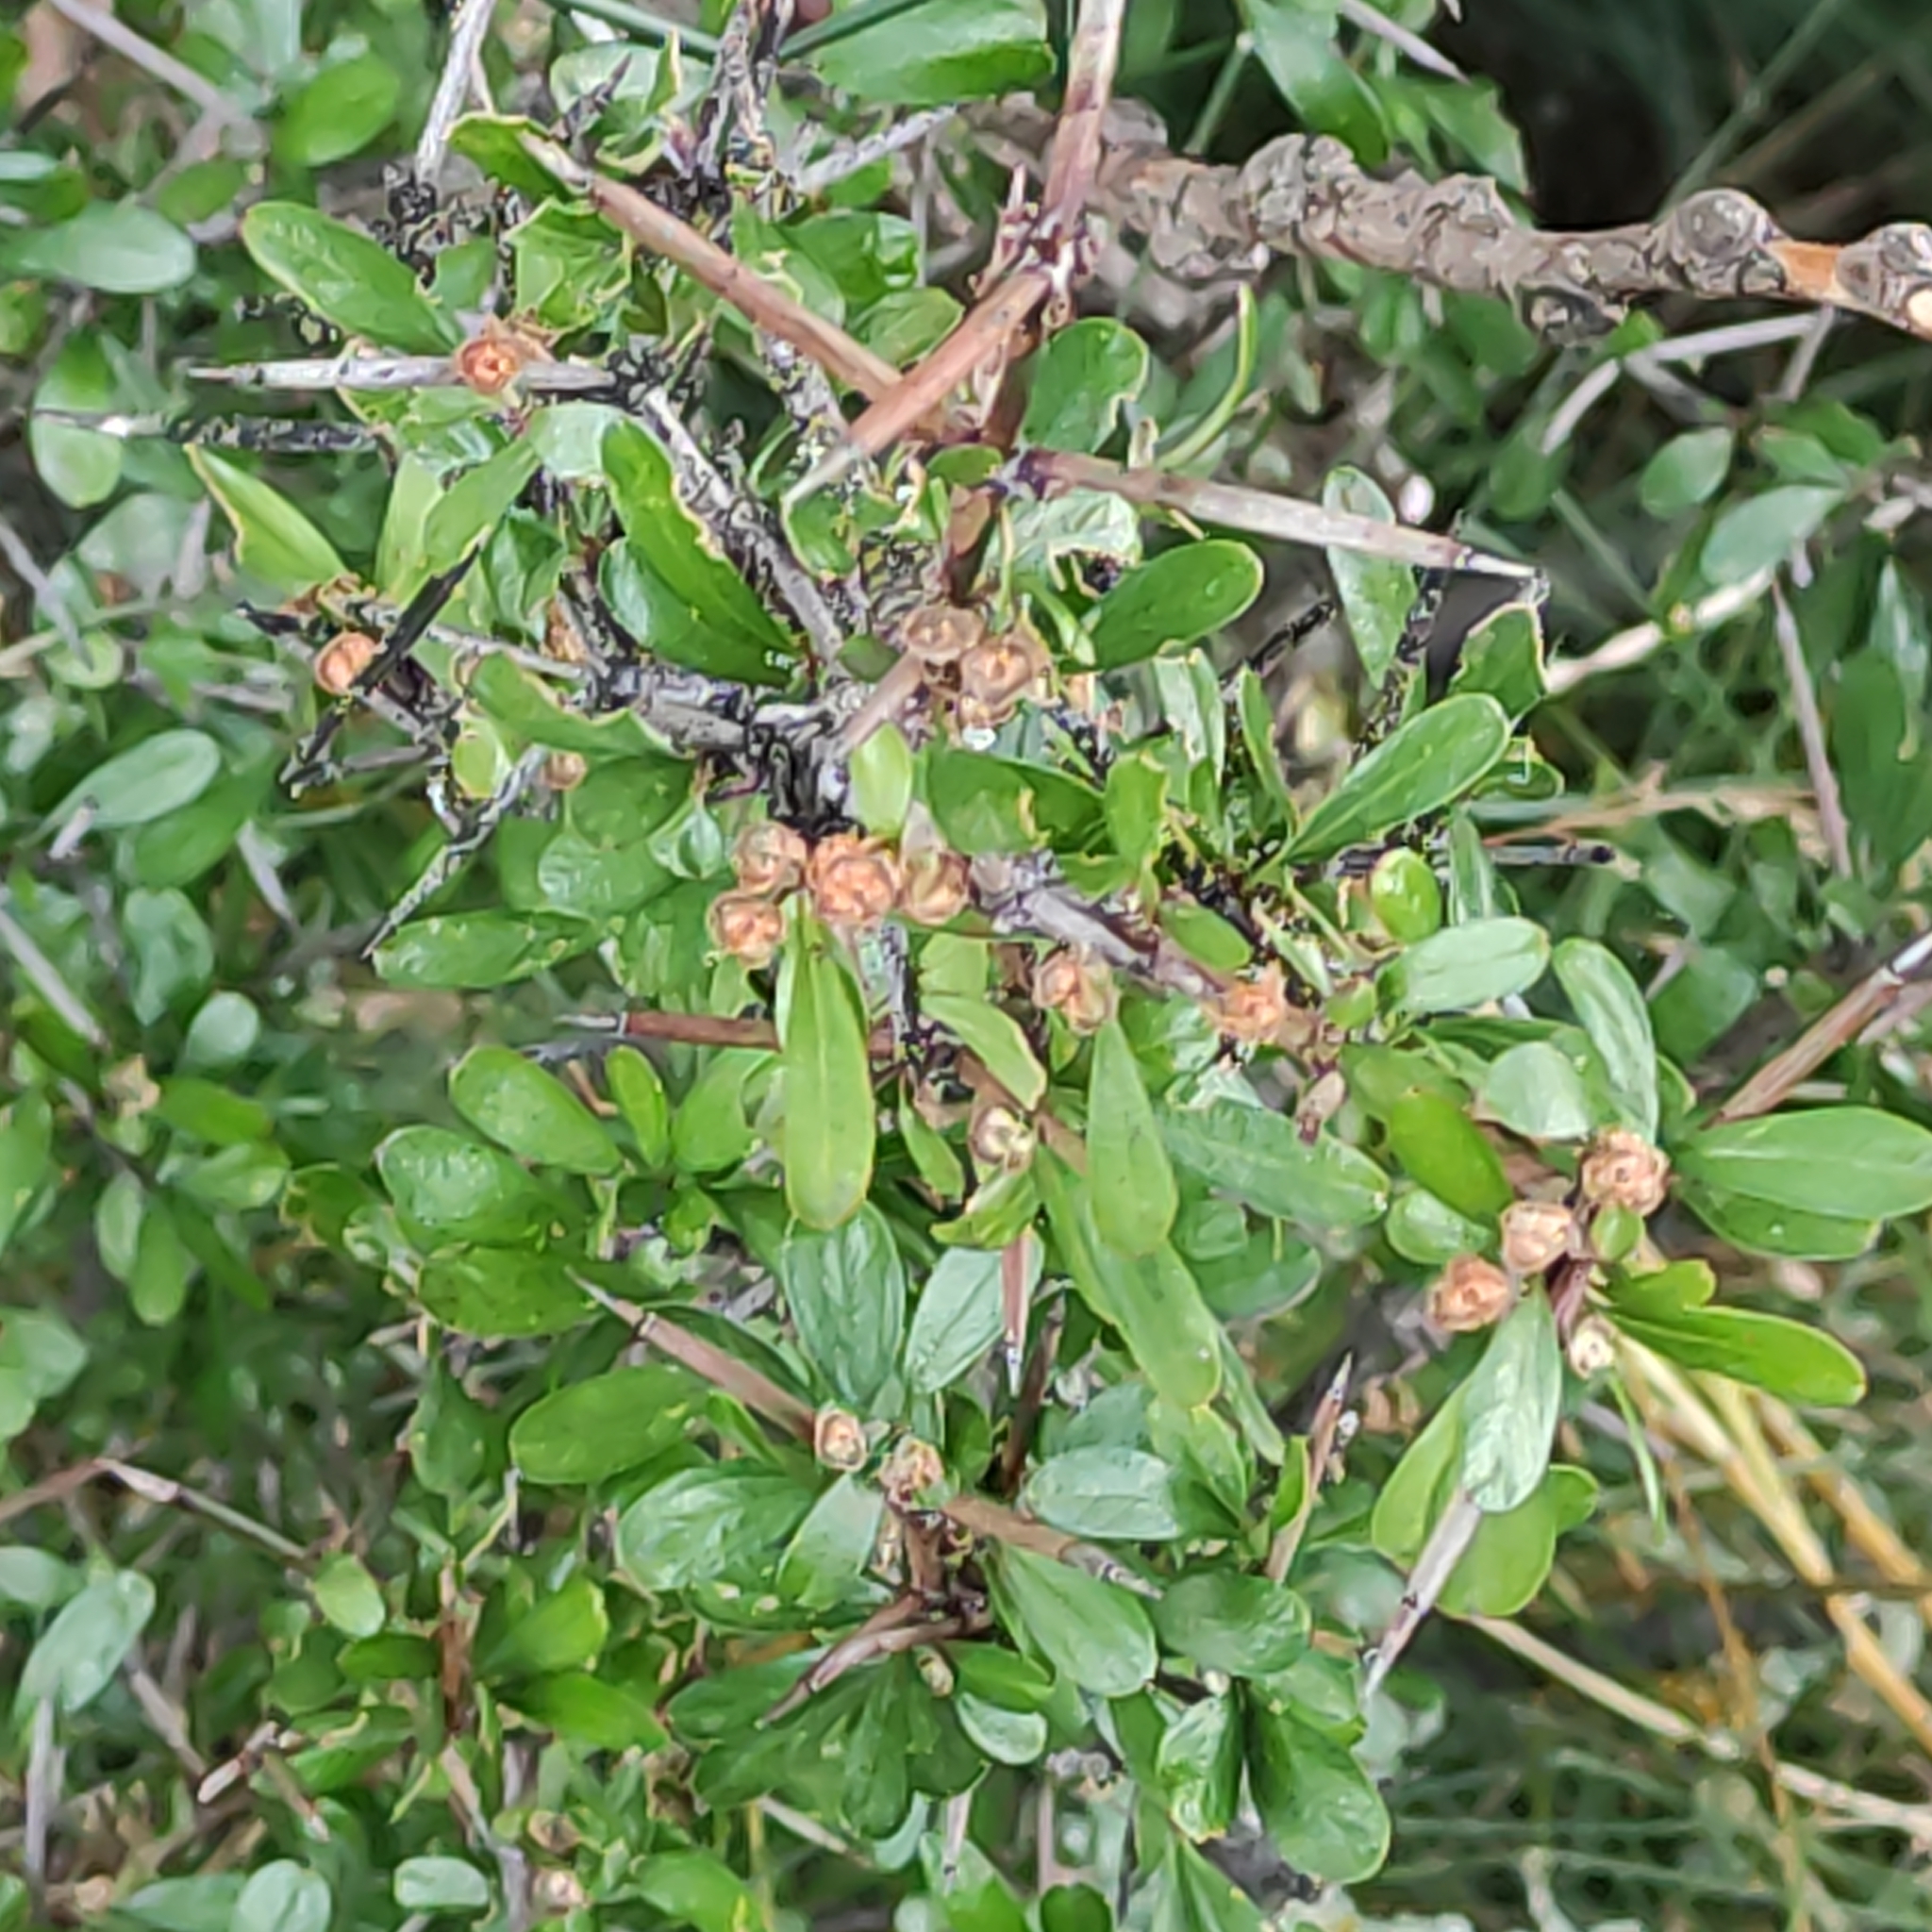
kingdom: Plantae
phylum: Tracheophyta
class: Magnoliopsida
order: Rosales
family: Rhamnaceae
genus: Discaria
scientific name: Discaria toumatou
